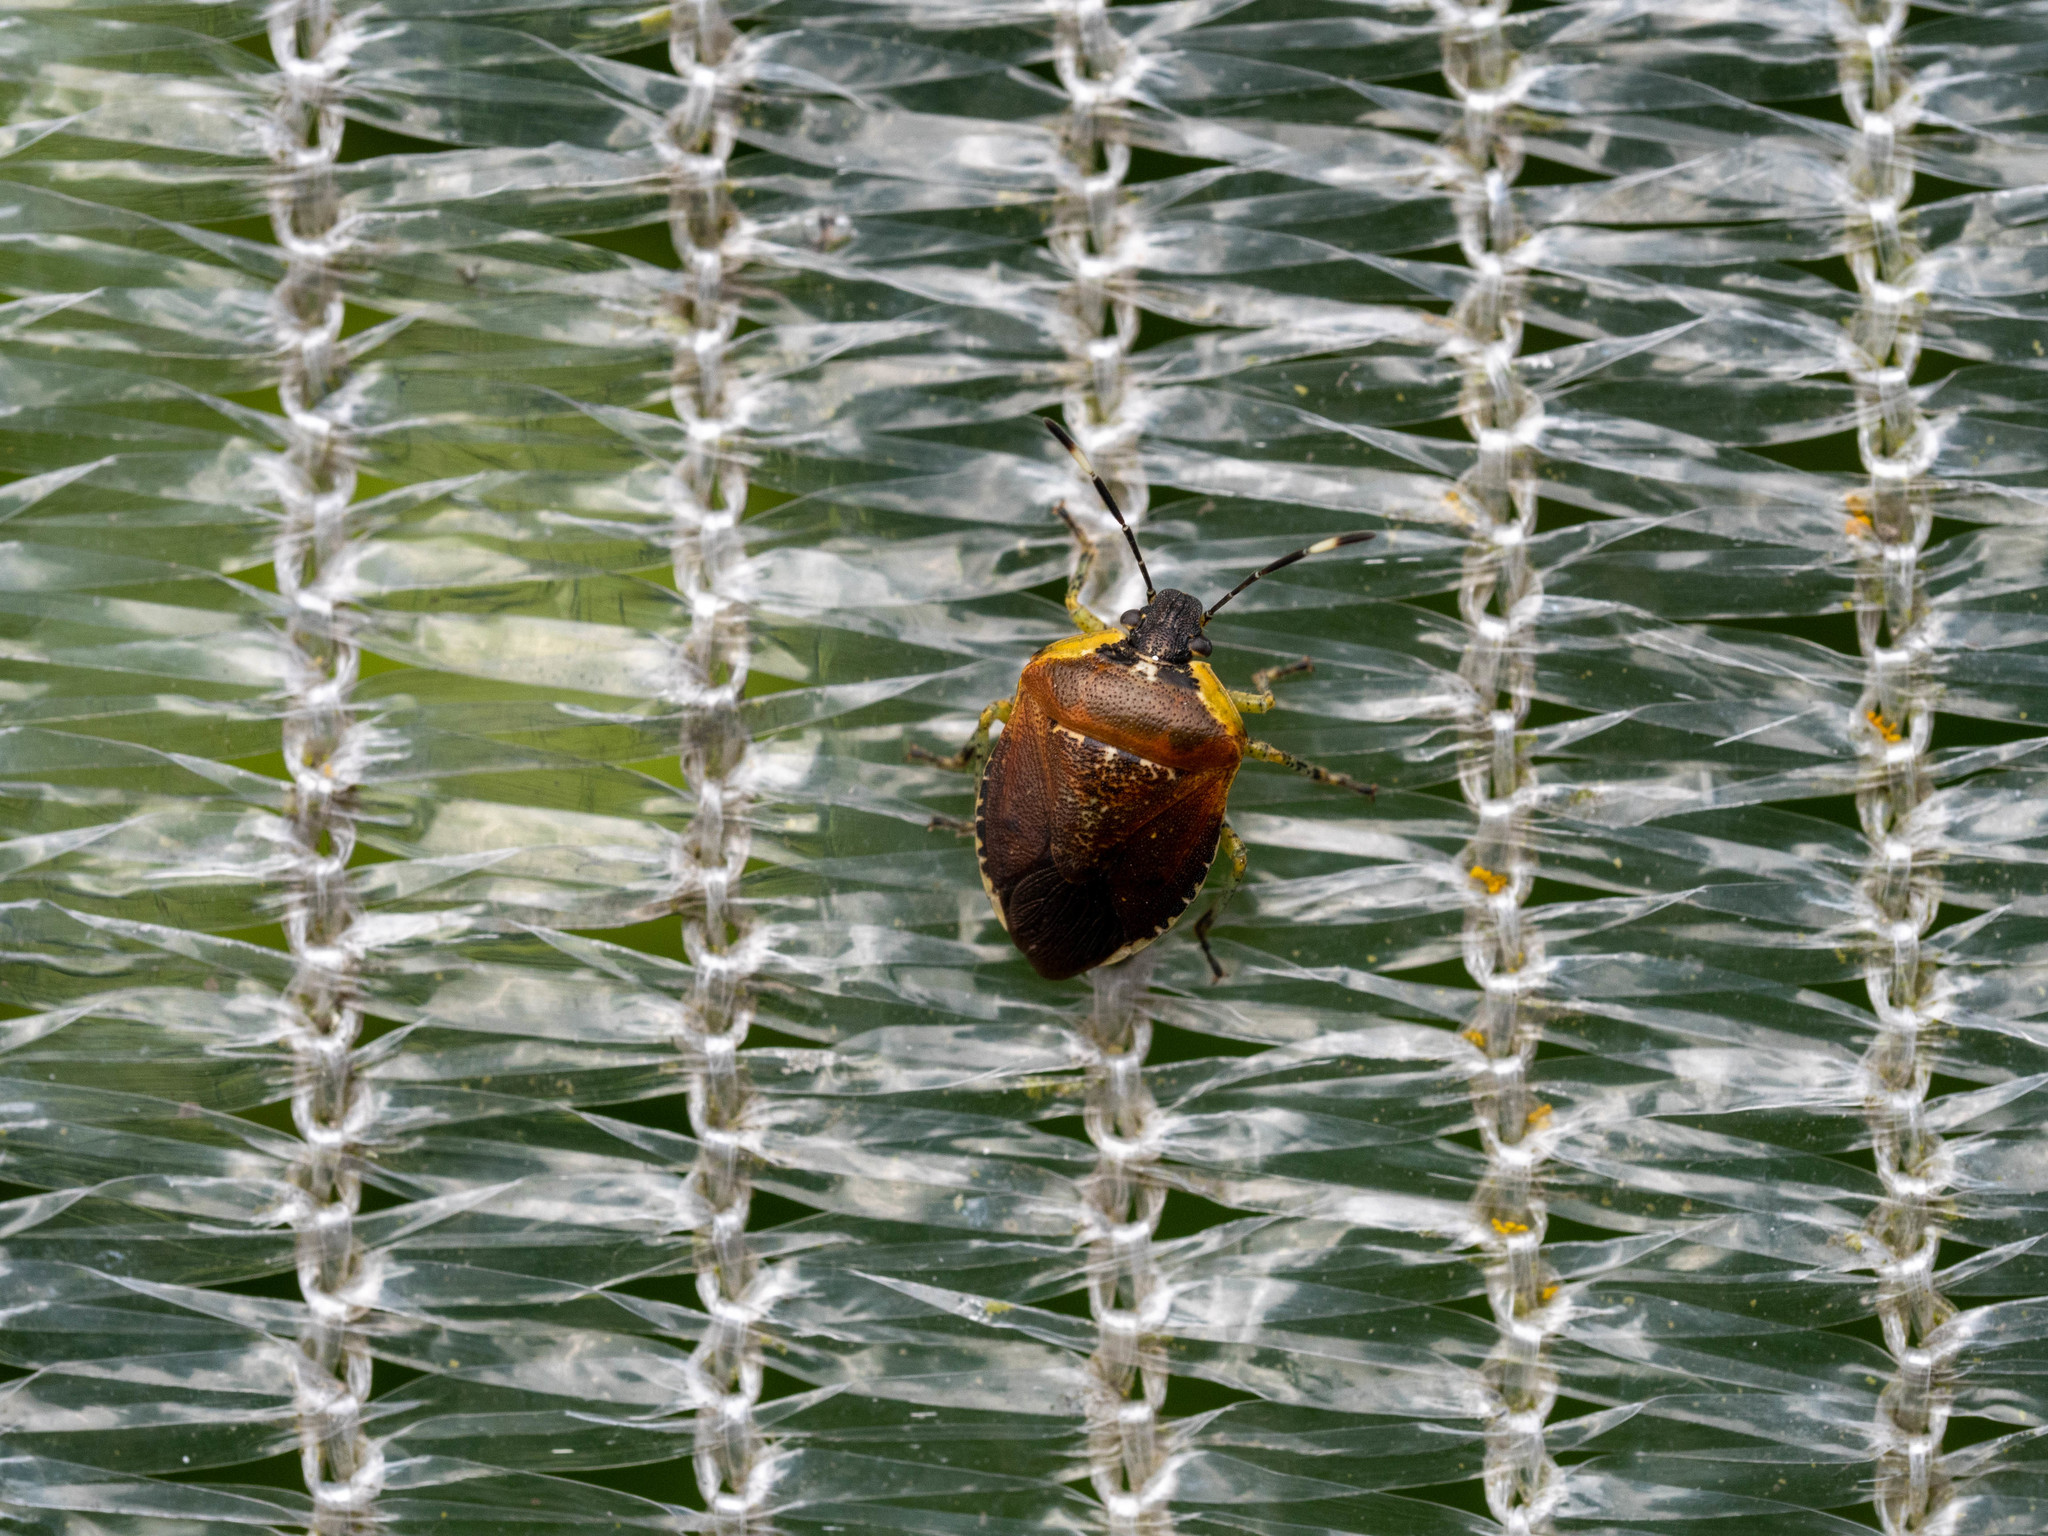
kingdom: Animalia
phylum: Arthropoda
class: Insecta
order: Hemiptera
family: Pentatomidae
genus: Monteithiella
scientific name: Monteithiella
